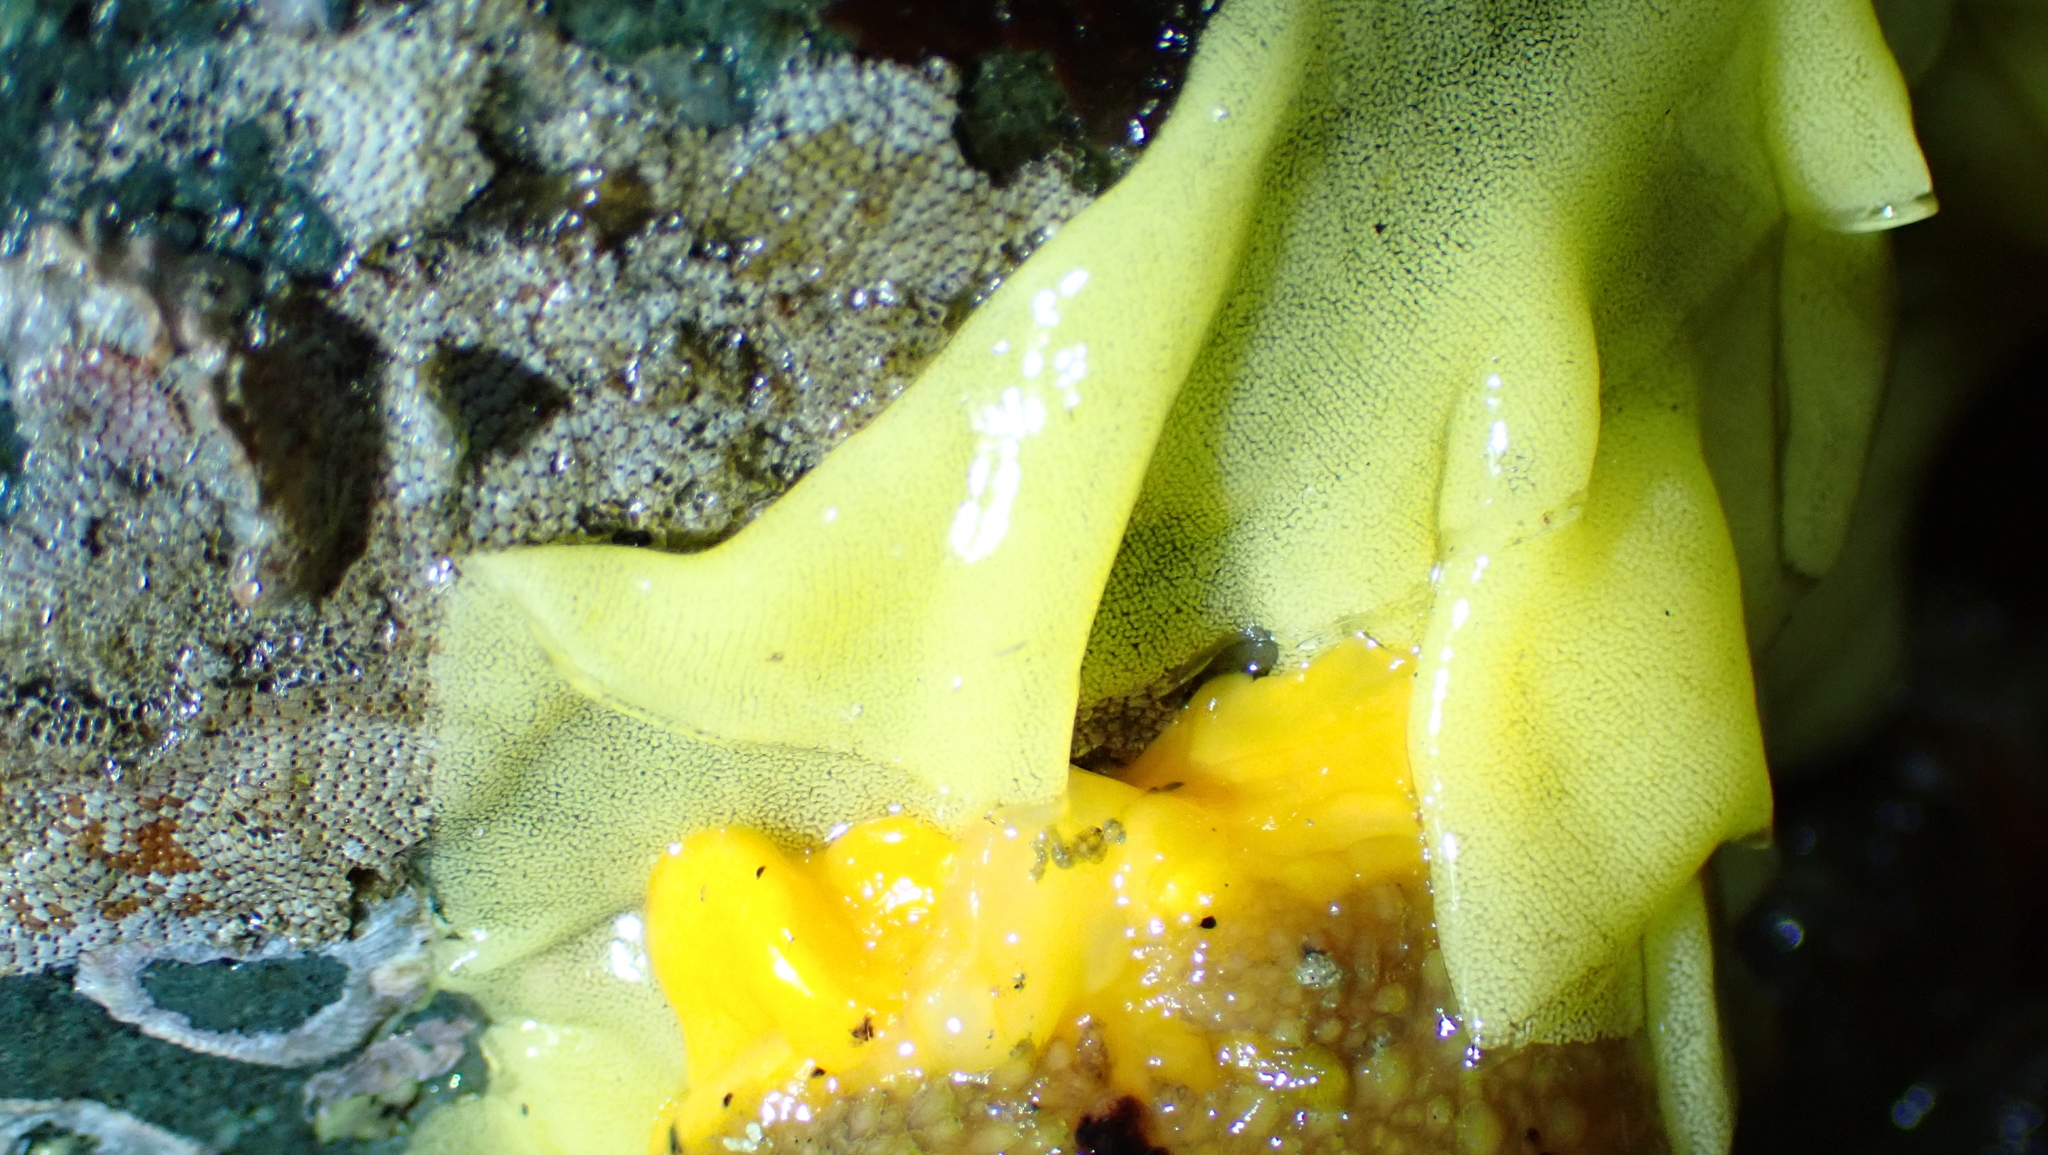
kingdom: Animalia
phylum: Mollusca
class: Gastropoda
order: Nudibranchia
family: Dorididae
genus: Doris
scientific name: Doris montereyensis
